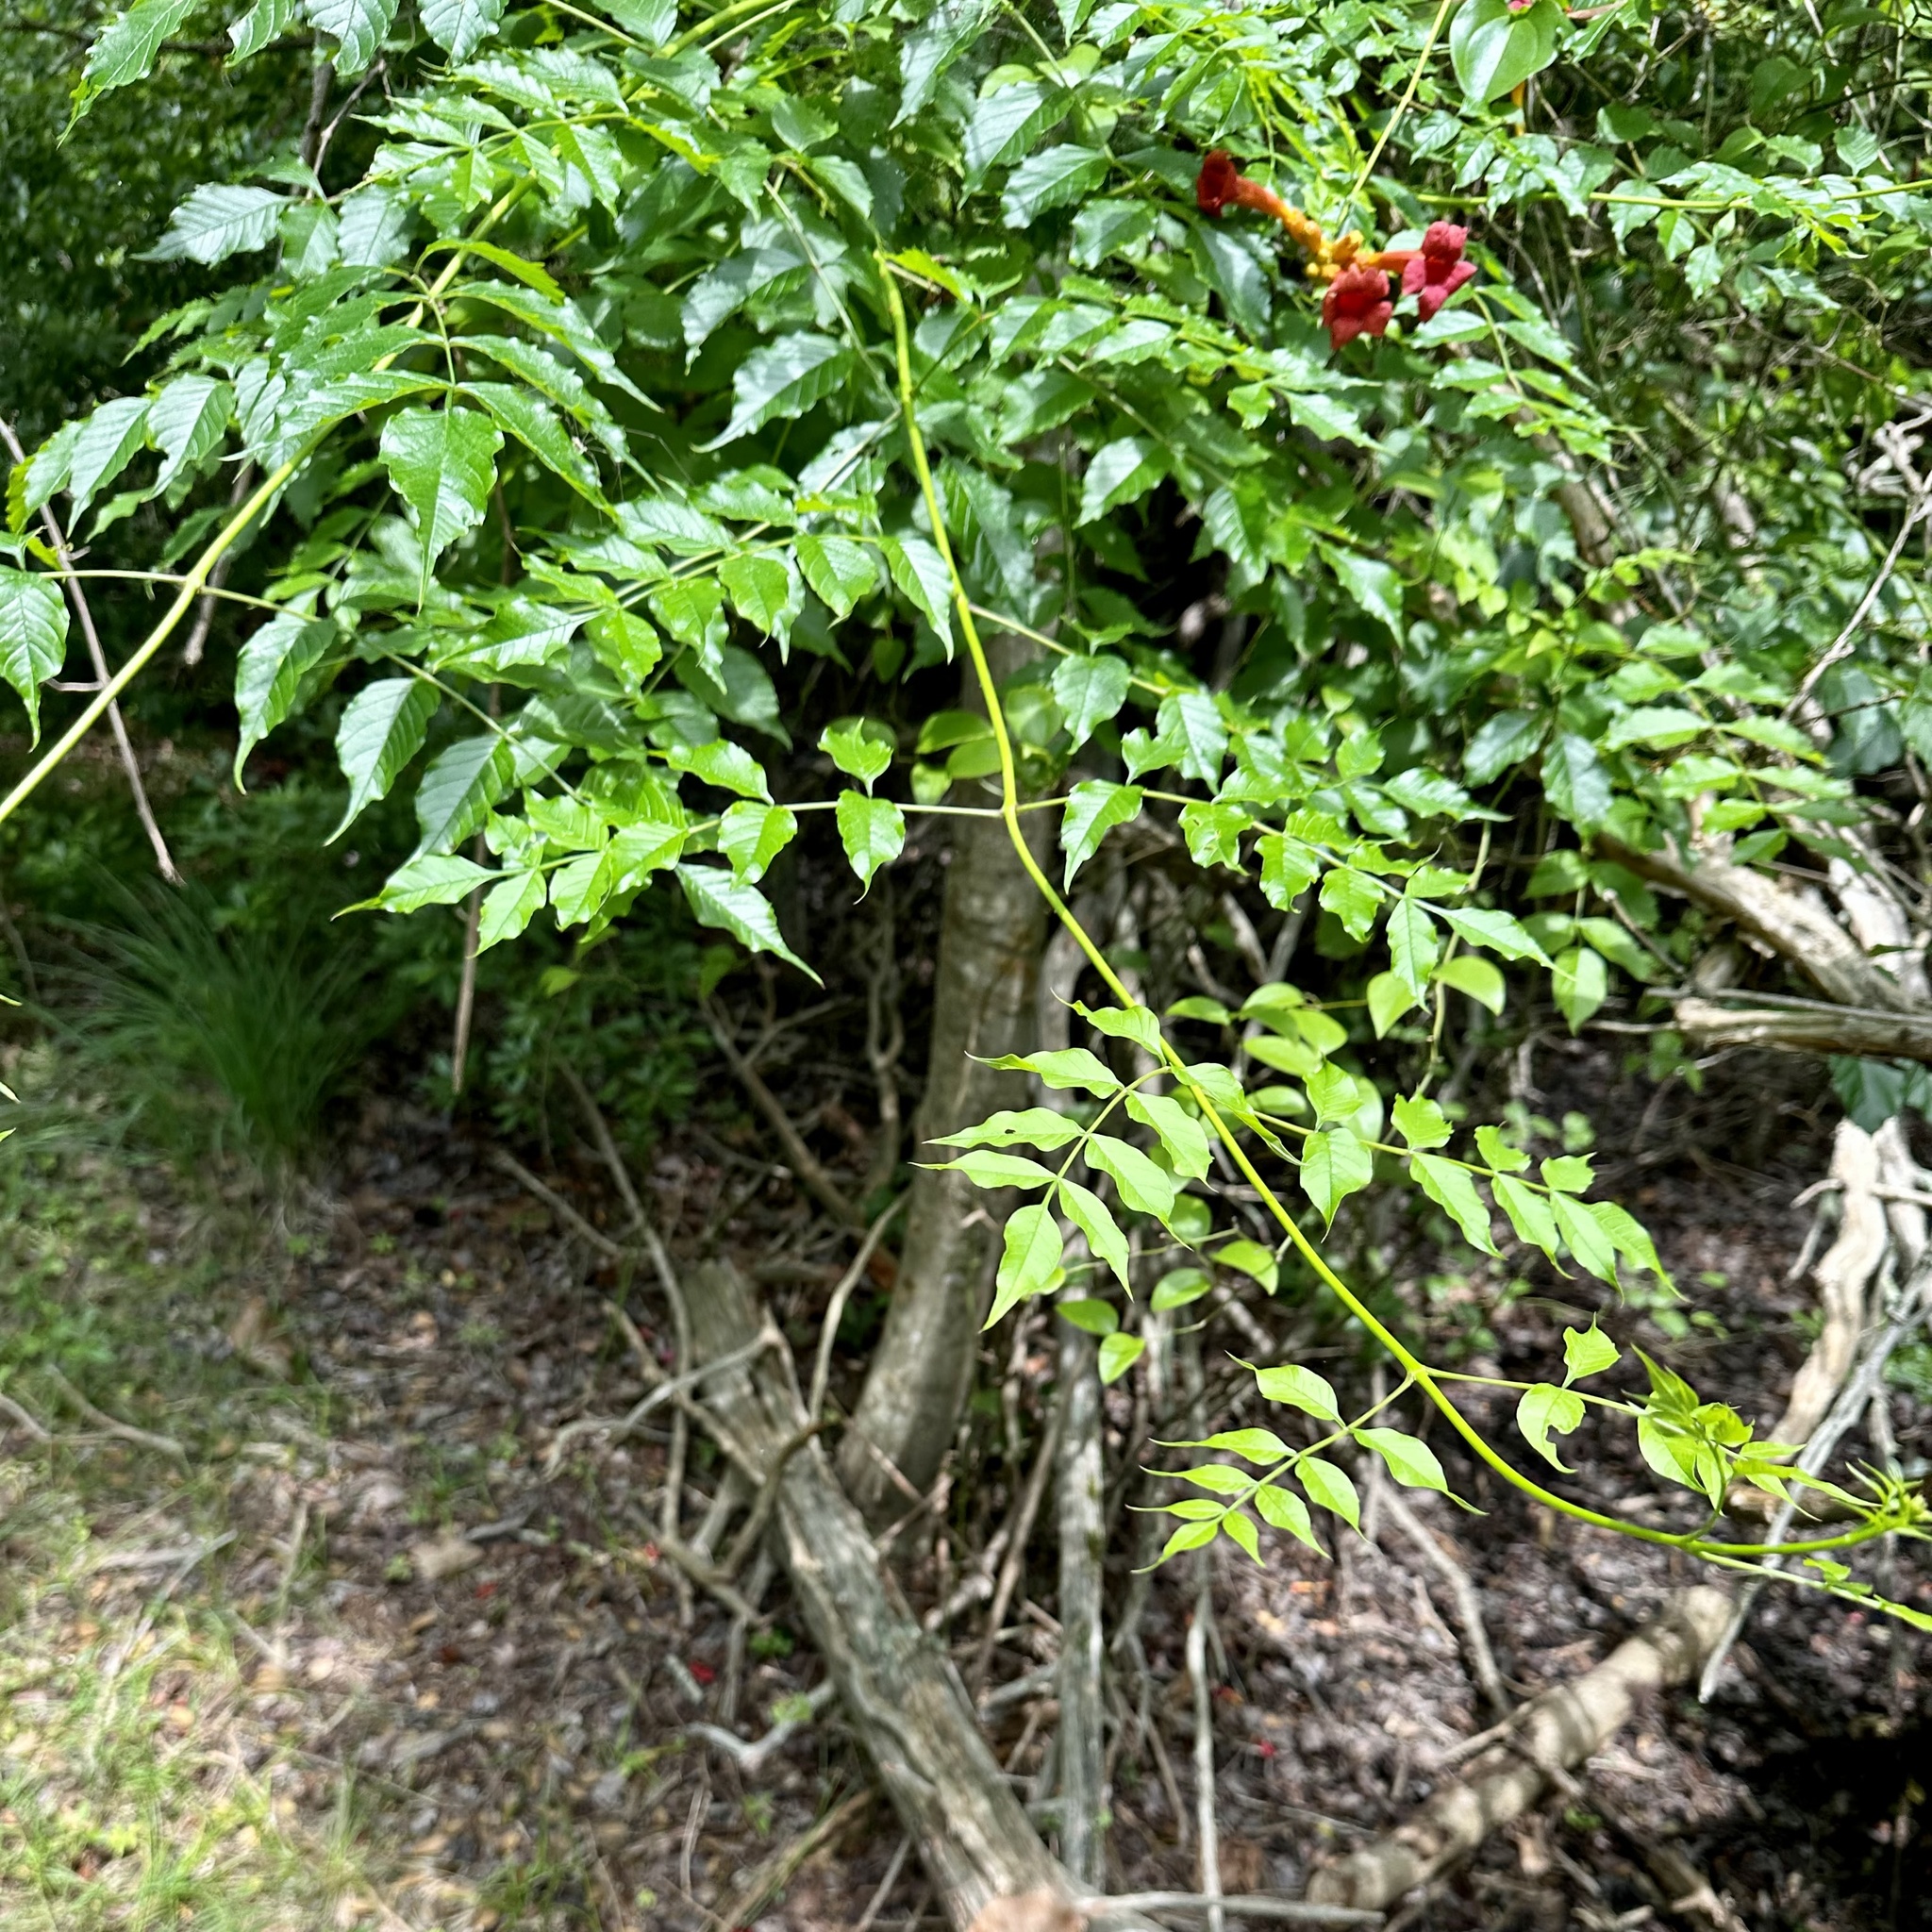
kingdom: Plantae
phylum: Tracheophyta
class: Magnoliopsida
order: Lamiales
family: Bignoniaceae
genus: Campsis
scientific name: Campsis radicans
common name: Trumpet-creeper
